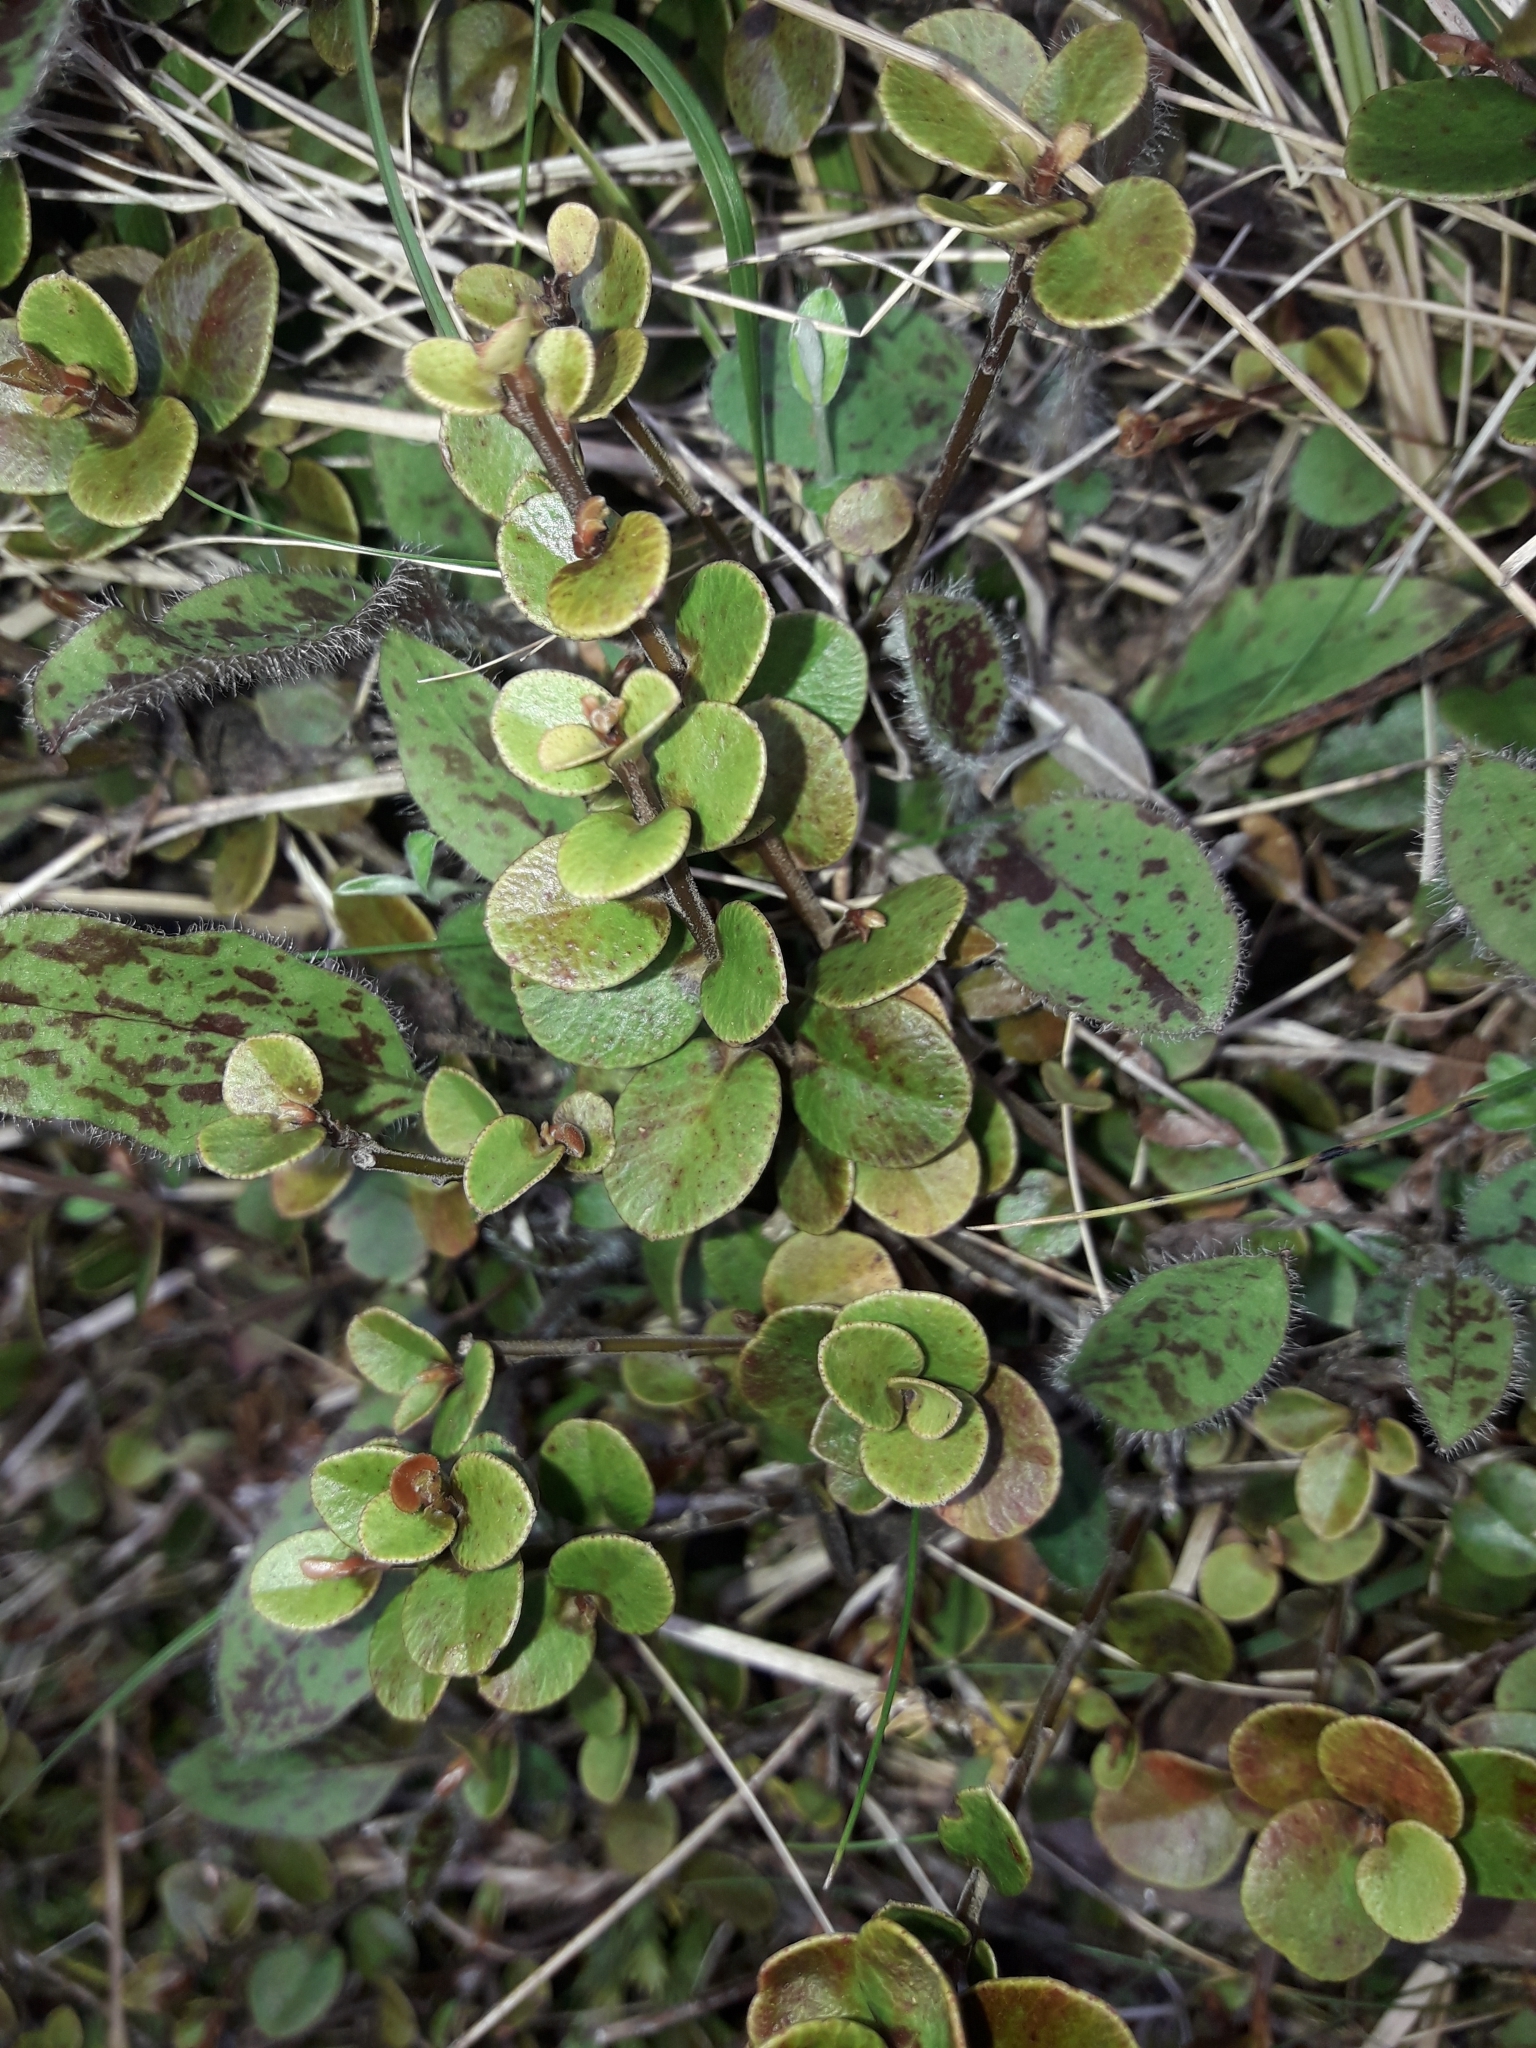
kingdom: Plantae
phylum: Tracheophyta
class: Magnoliopsida
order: Ericales
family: Primulaceae
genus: Myrsine
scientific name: Myrsine nummularia
